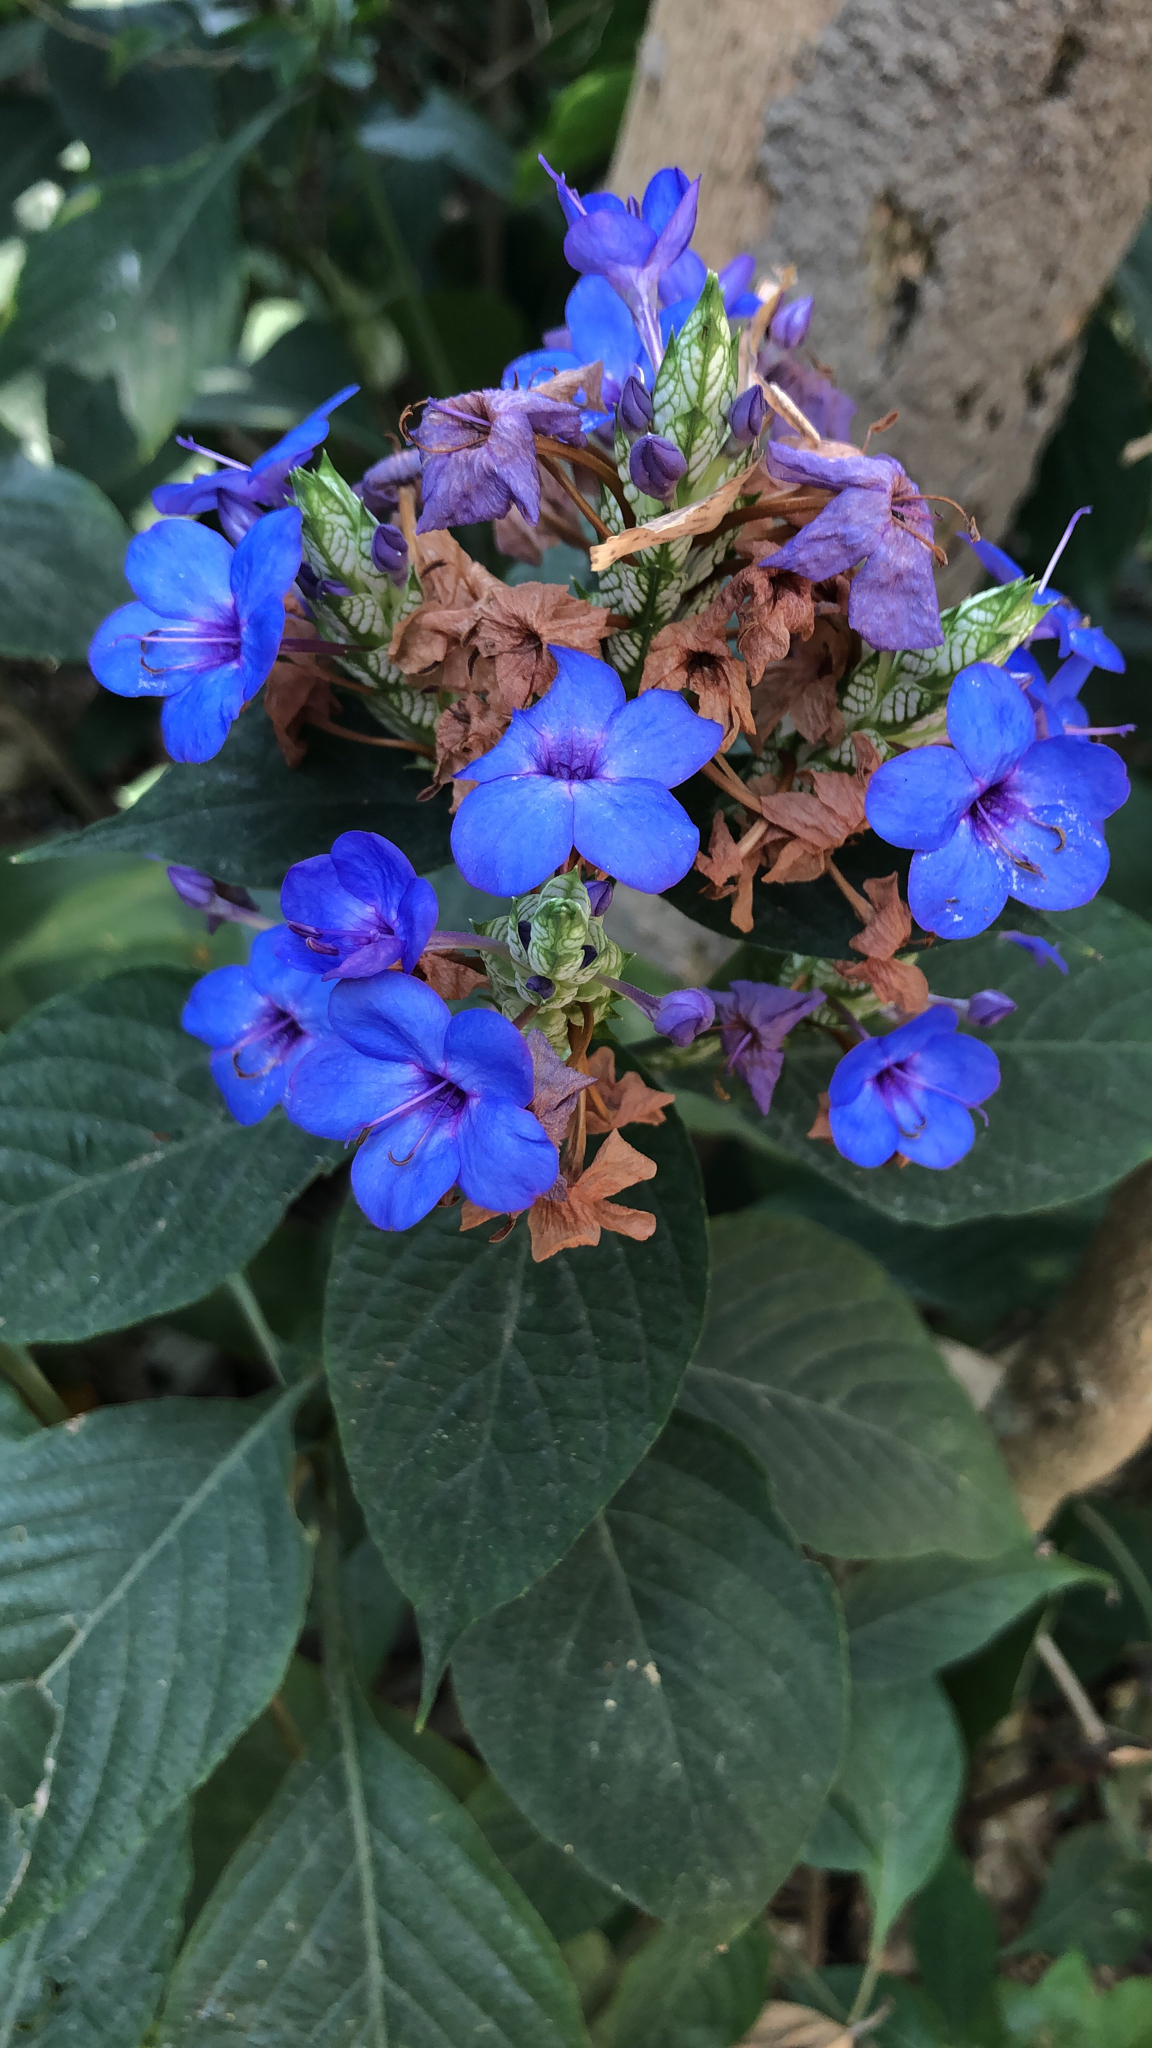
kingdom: Plantae
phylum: Tracheophyta
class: Magnoliopsida
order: Lamiales
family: Acanthaceae
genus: Eranthemum
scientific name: Eranthemum pulchellum
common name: Blue-sage
